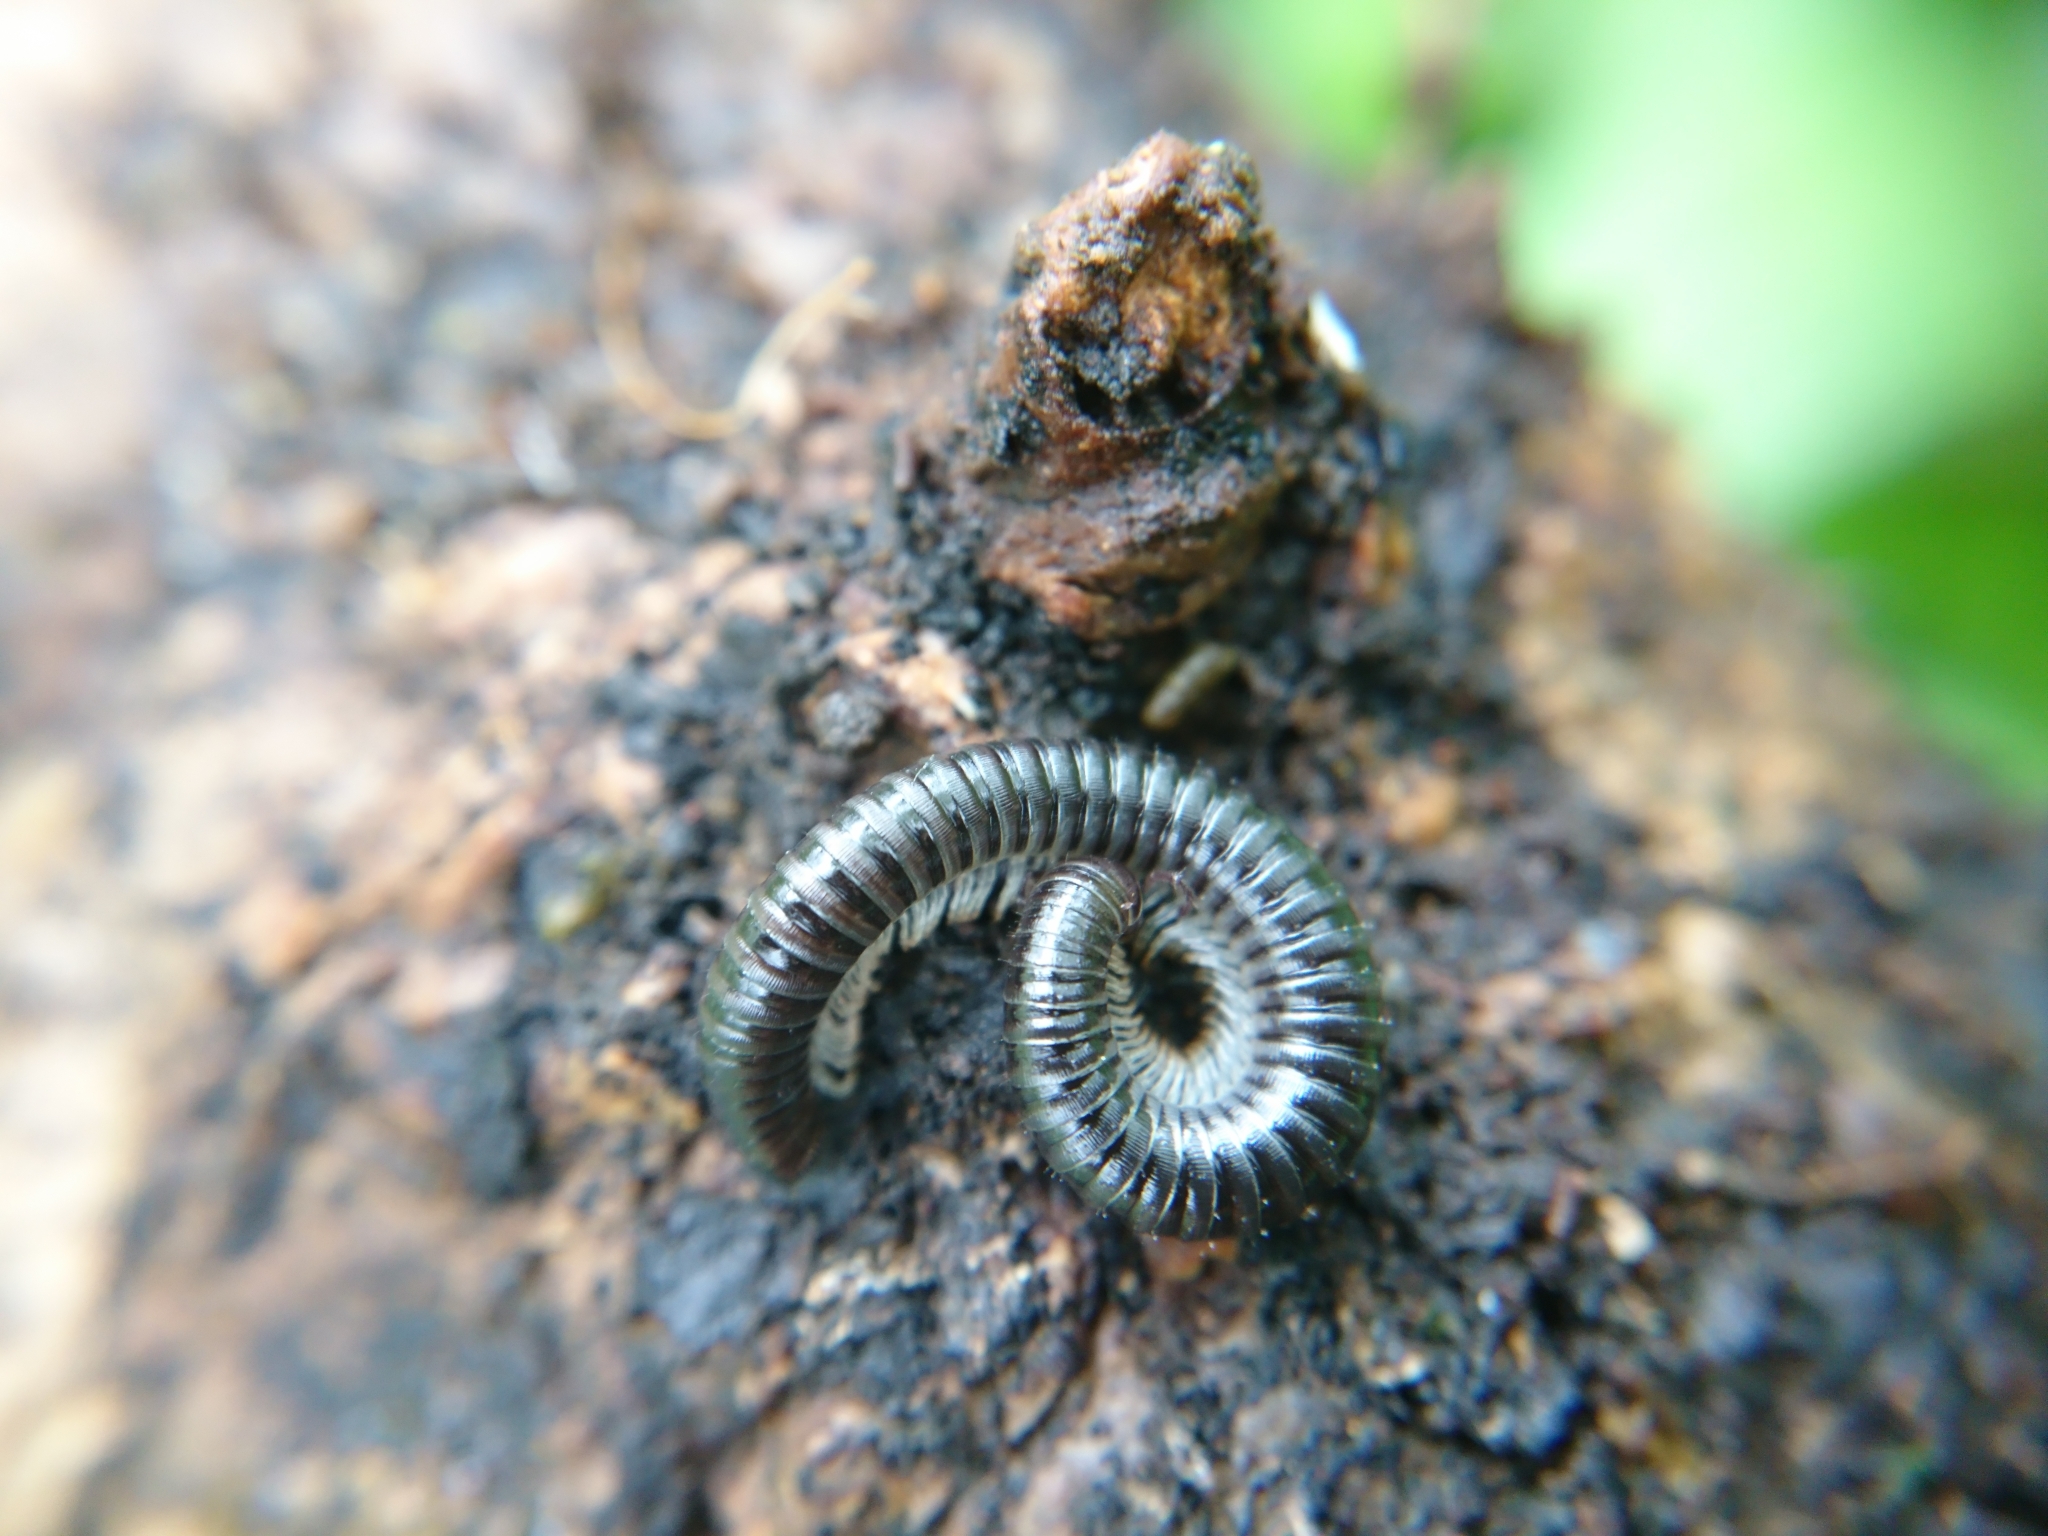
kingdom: Animalia
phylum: Arthropoda
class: Diplopoda
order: Julida
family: Julidae
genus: Tachypodoiulus
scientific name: Tachypodoiulus niger
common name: White-legged snake millipede
